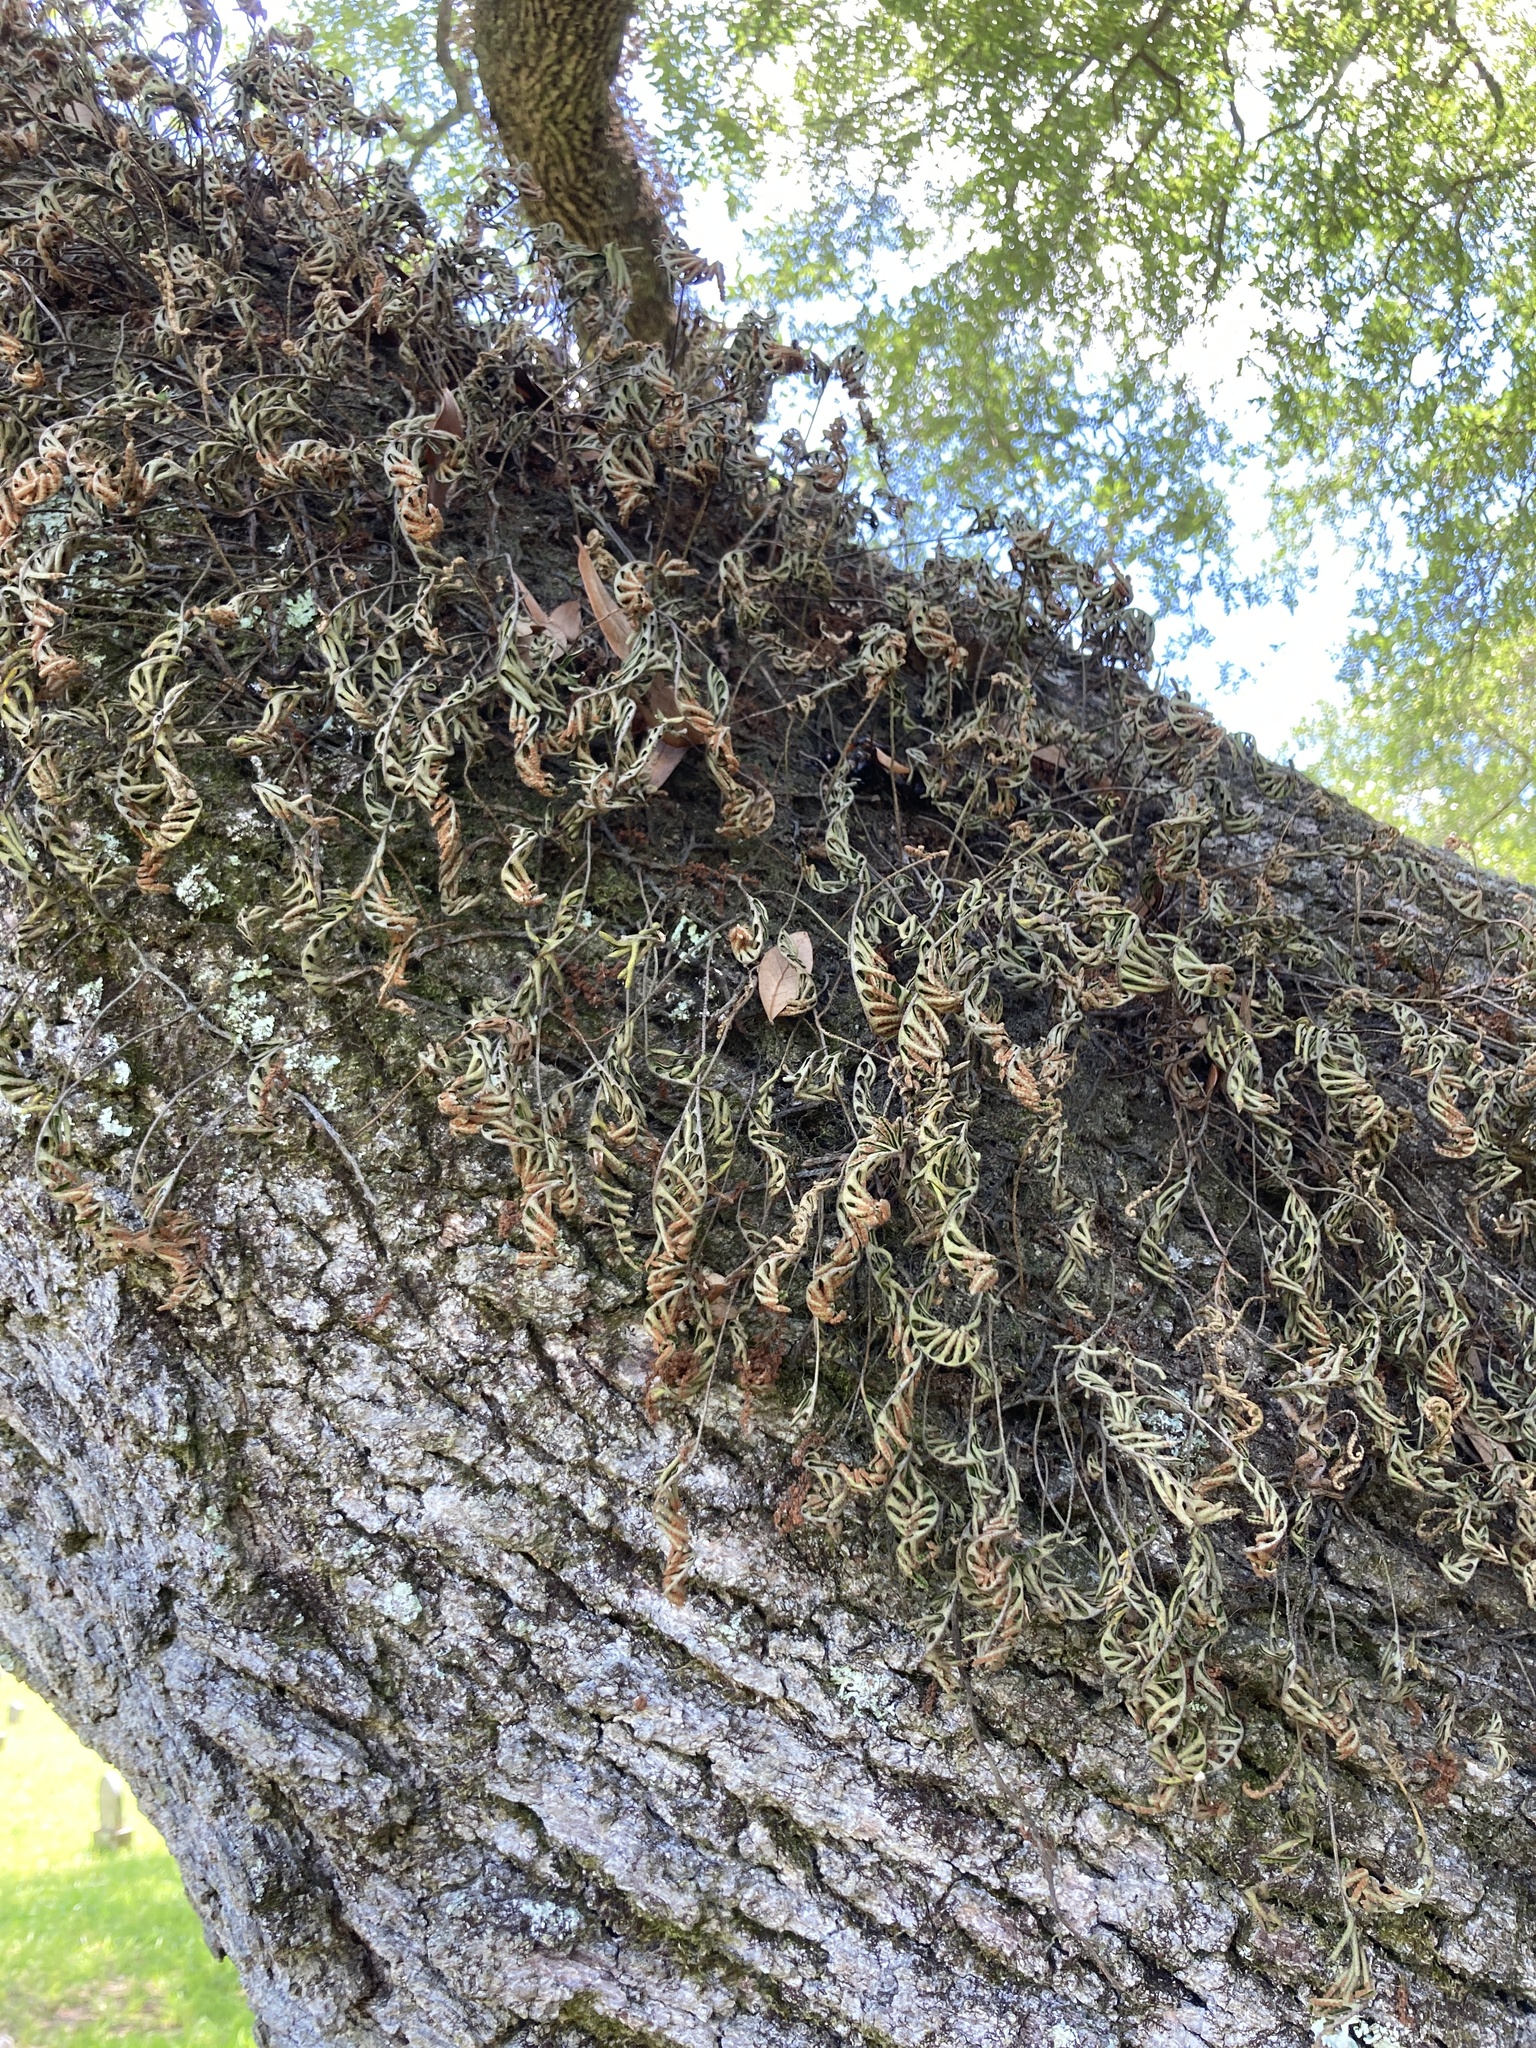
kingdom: Plantae
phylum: Tracheophyta
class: Polypodiopsida
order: Polypodiales
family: Polypodiaceae
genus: Pleopeltis
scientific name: Pleopeltis michauxiana
